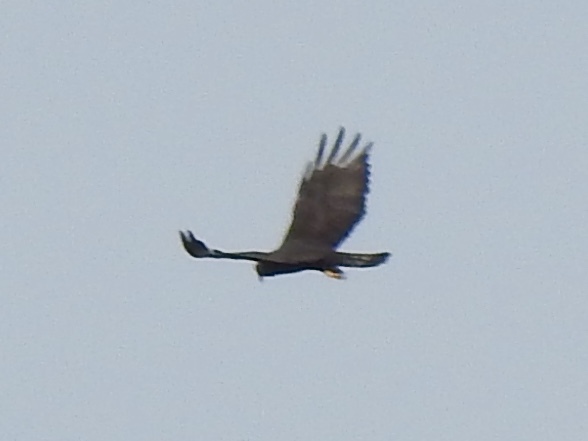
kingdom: Animalia
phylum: Chordata
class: Aves
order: Accipitriformes
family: Accipitridae
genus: Buteo
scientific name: Buteo albonotatus
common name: Zone-tailed hawk
